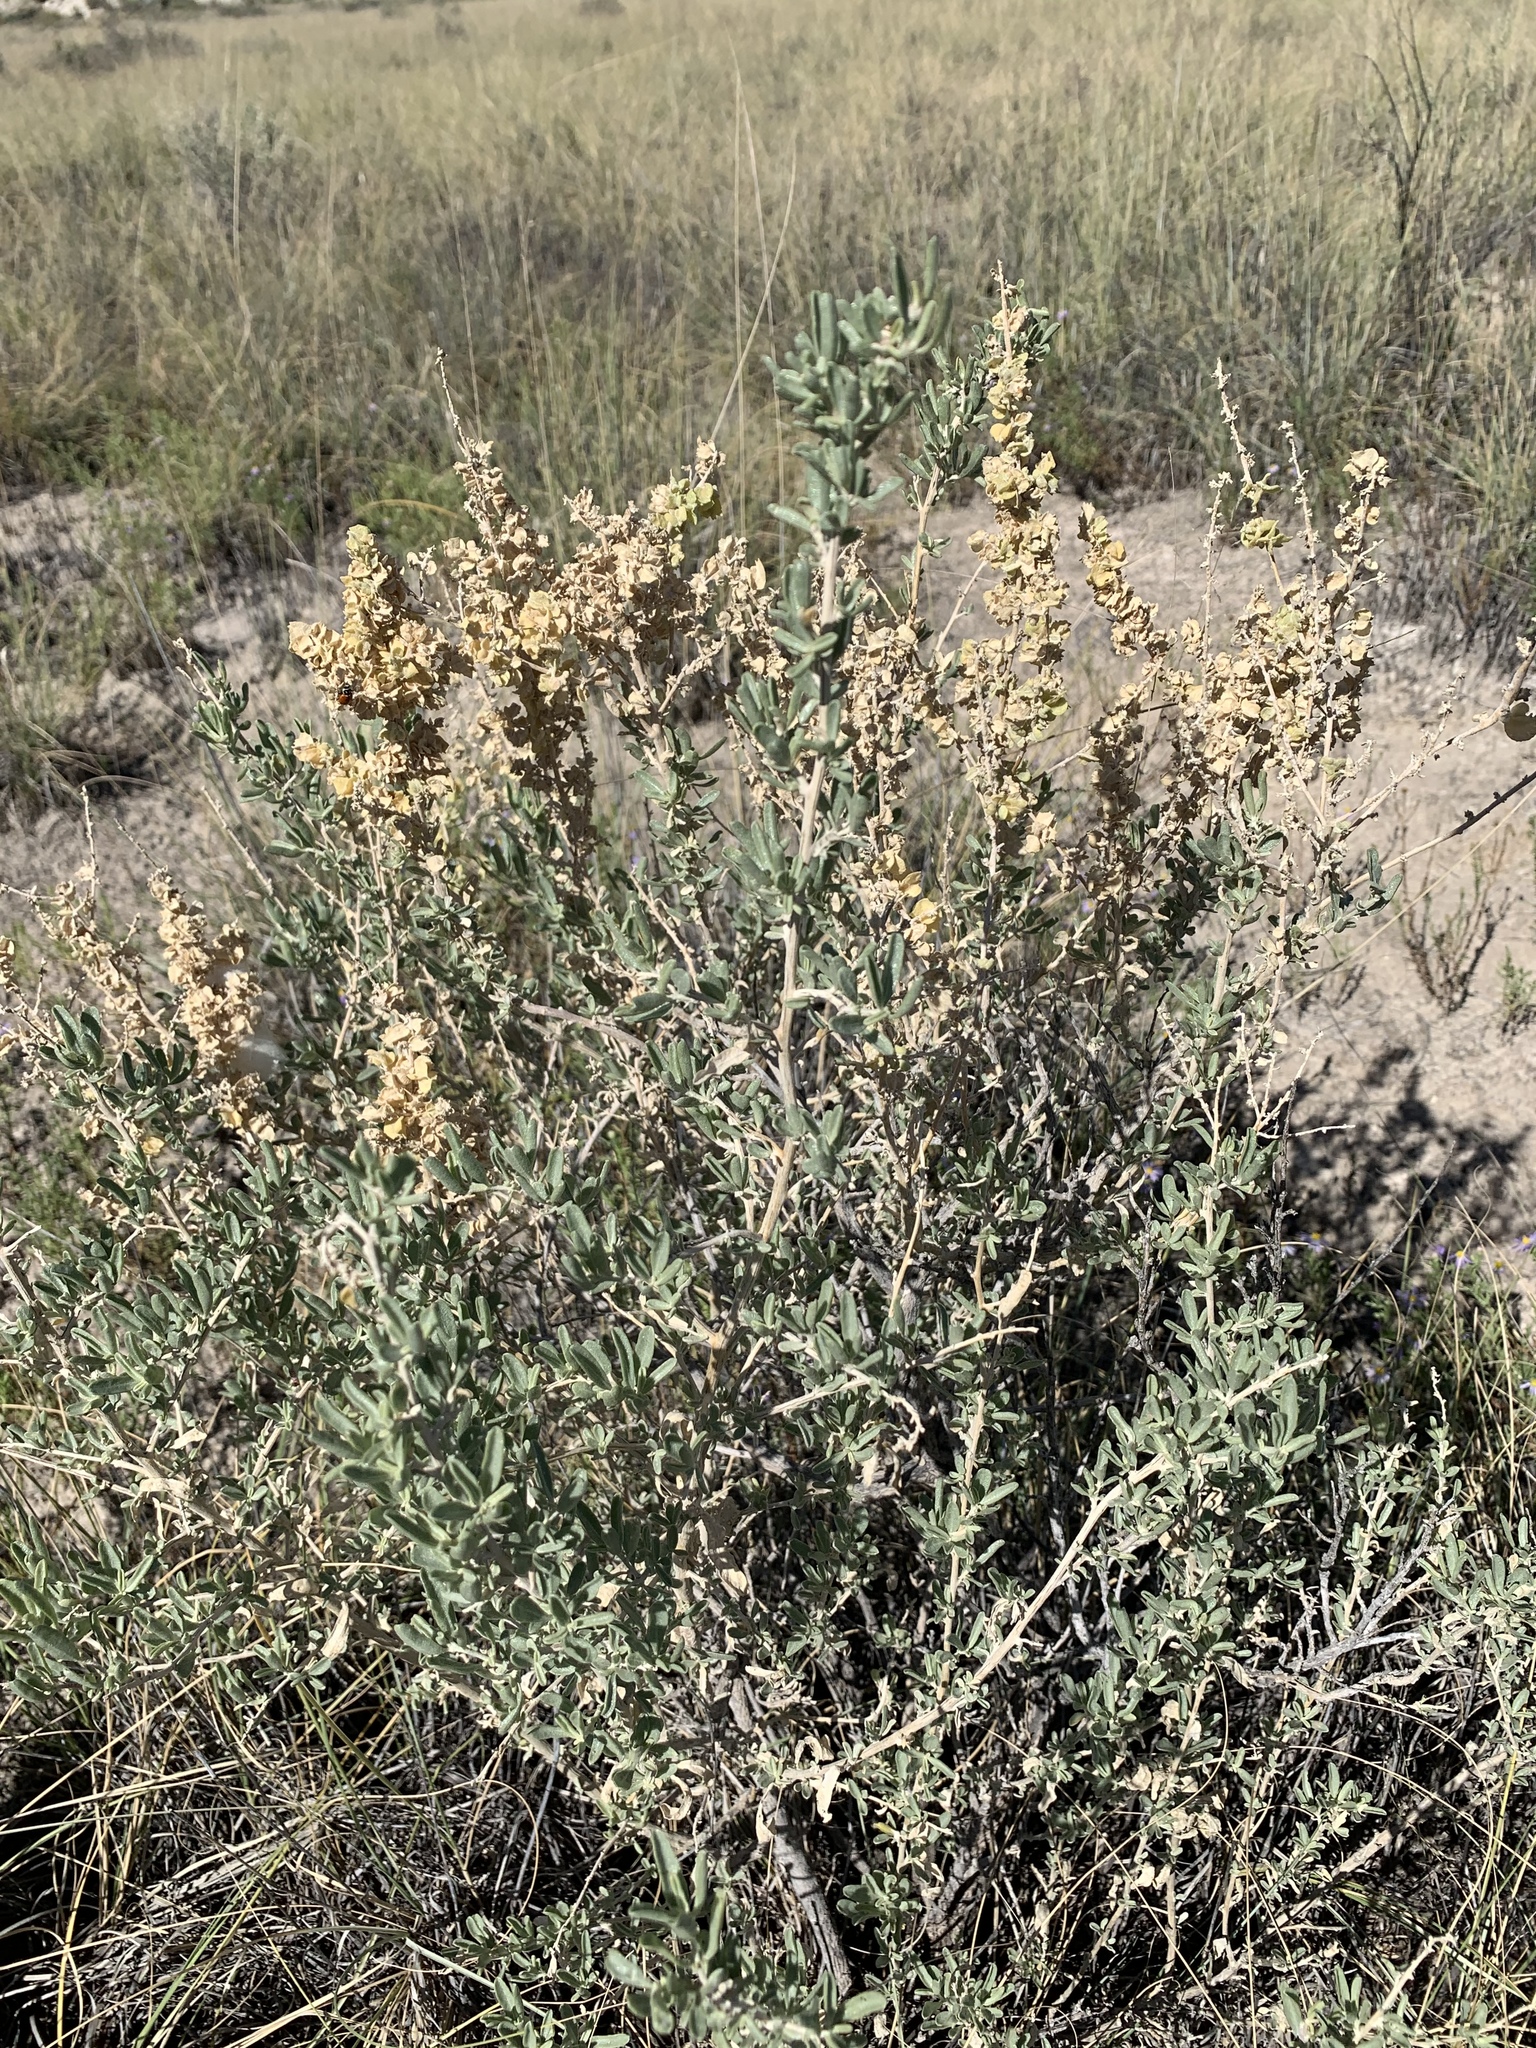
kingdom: Plantae
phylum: Tracheophyta
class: Magnoliopsida
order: Caryophyllales
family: Amaranthaceae
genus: Atriplex
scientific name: Atriplex canescens
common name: Four-wing saltbush
